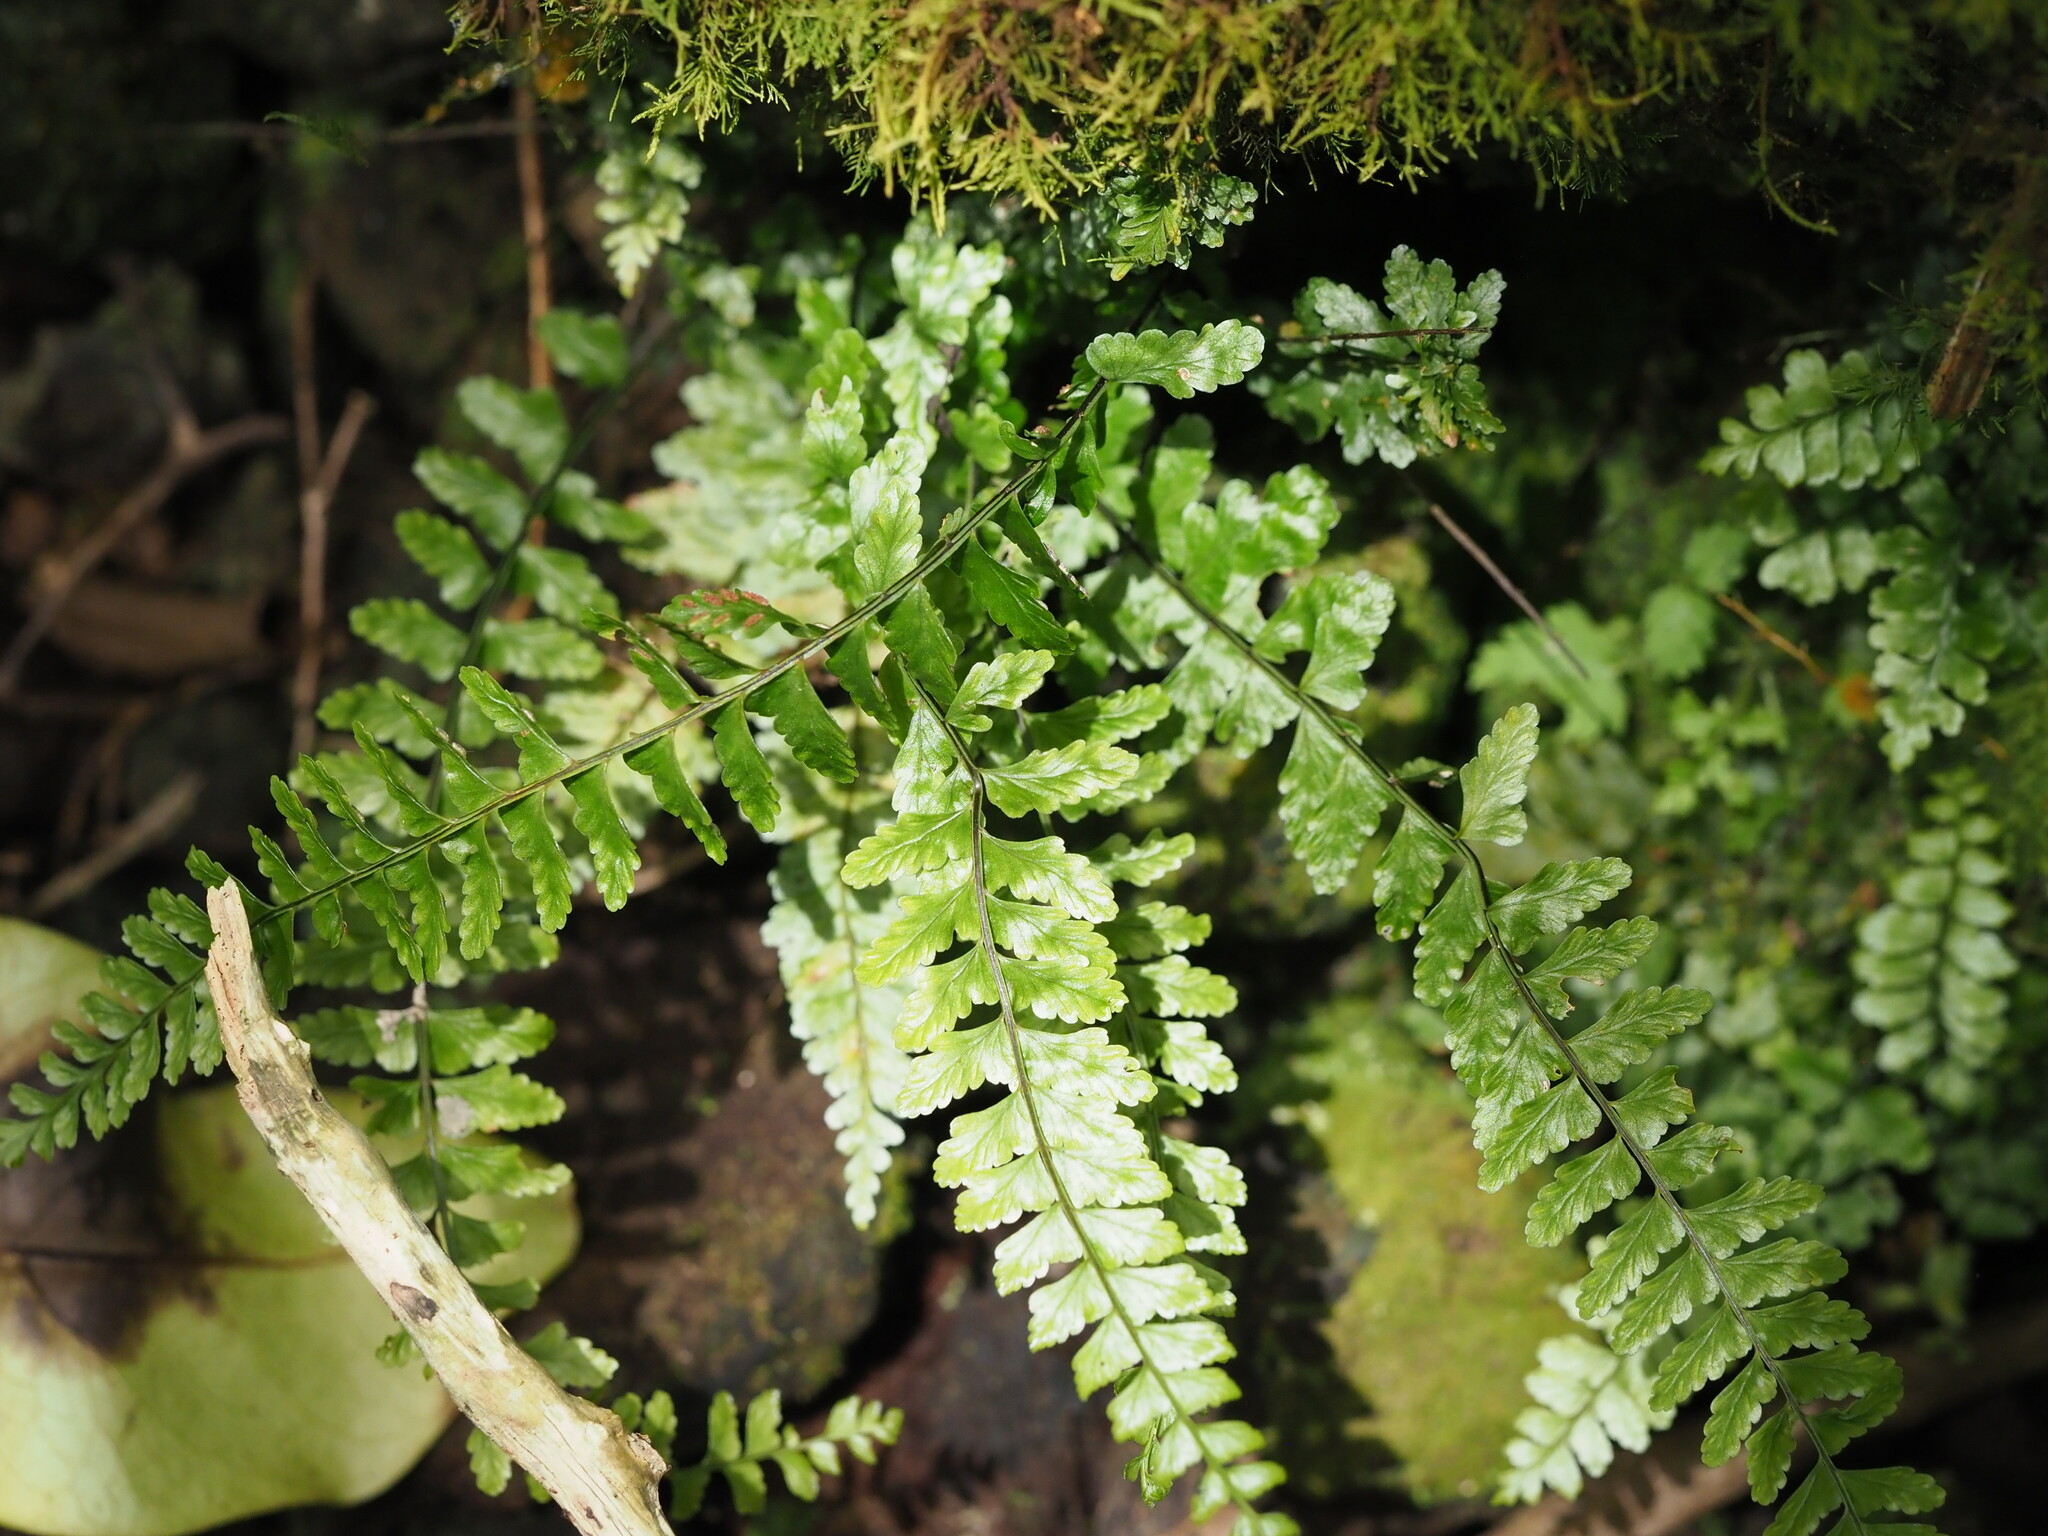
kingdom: Plantae
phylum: Tracheophyta
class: Polypodiopsida
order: Polypodiales
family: Aspleniaceae
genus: Asplenium
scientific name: Asplenium macraei
